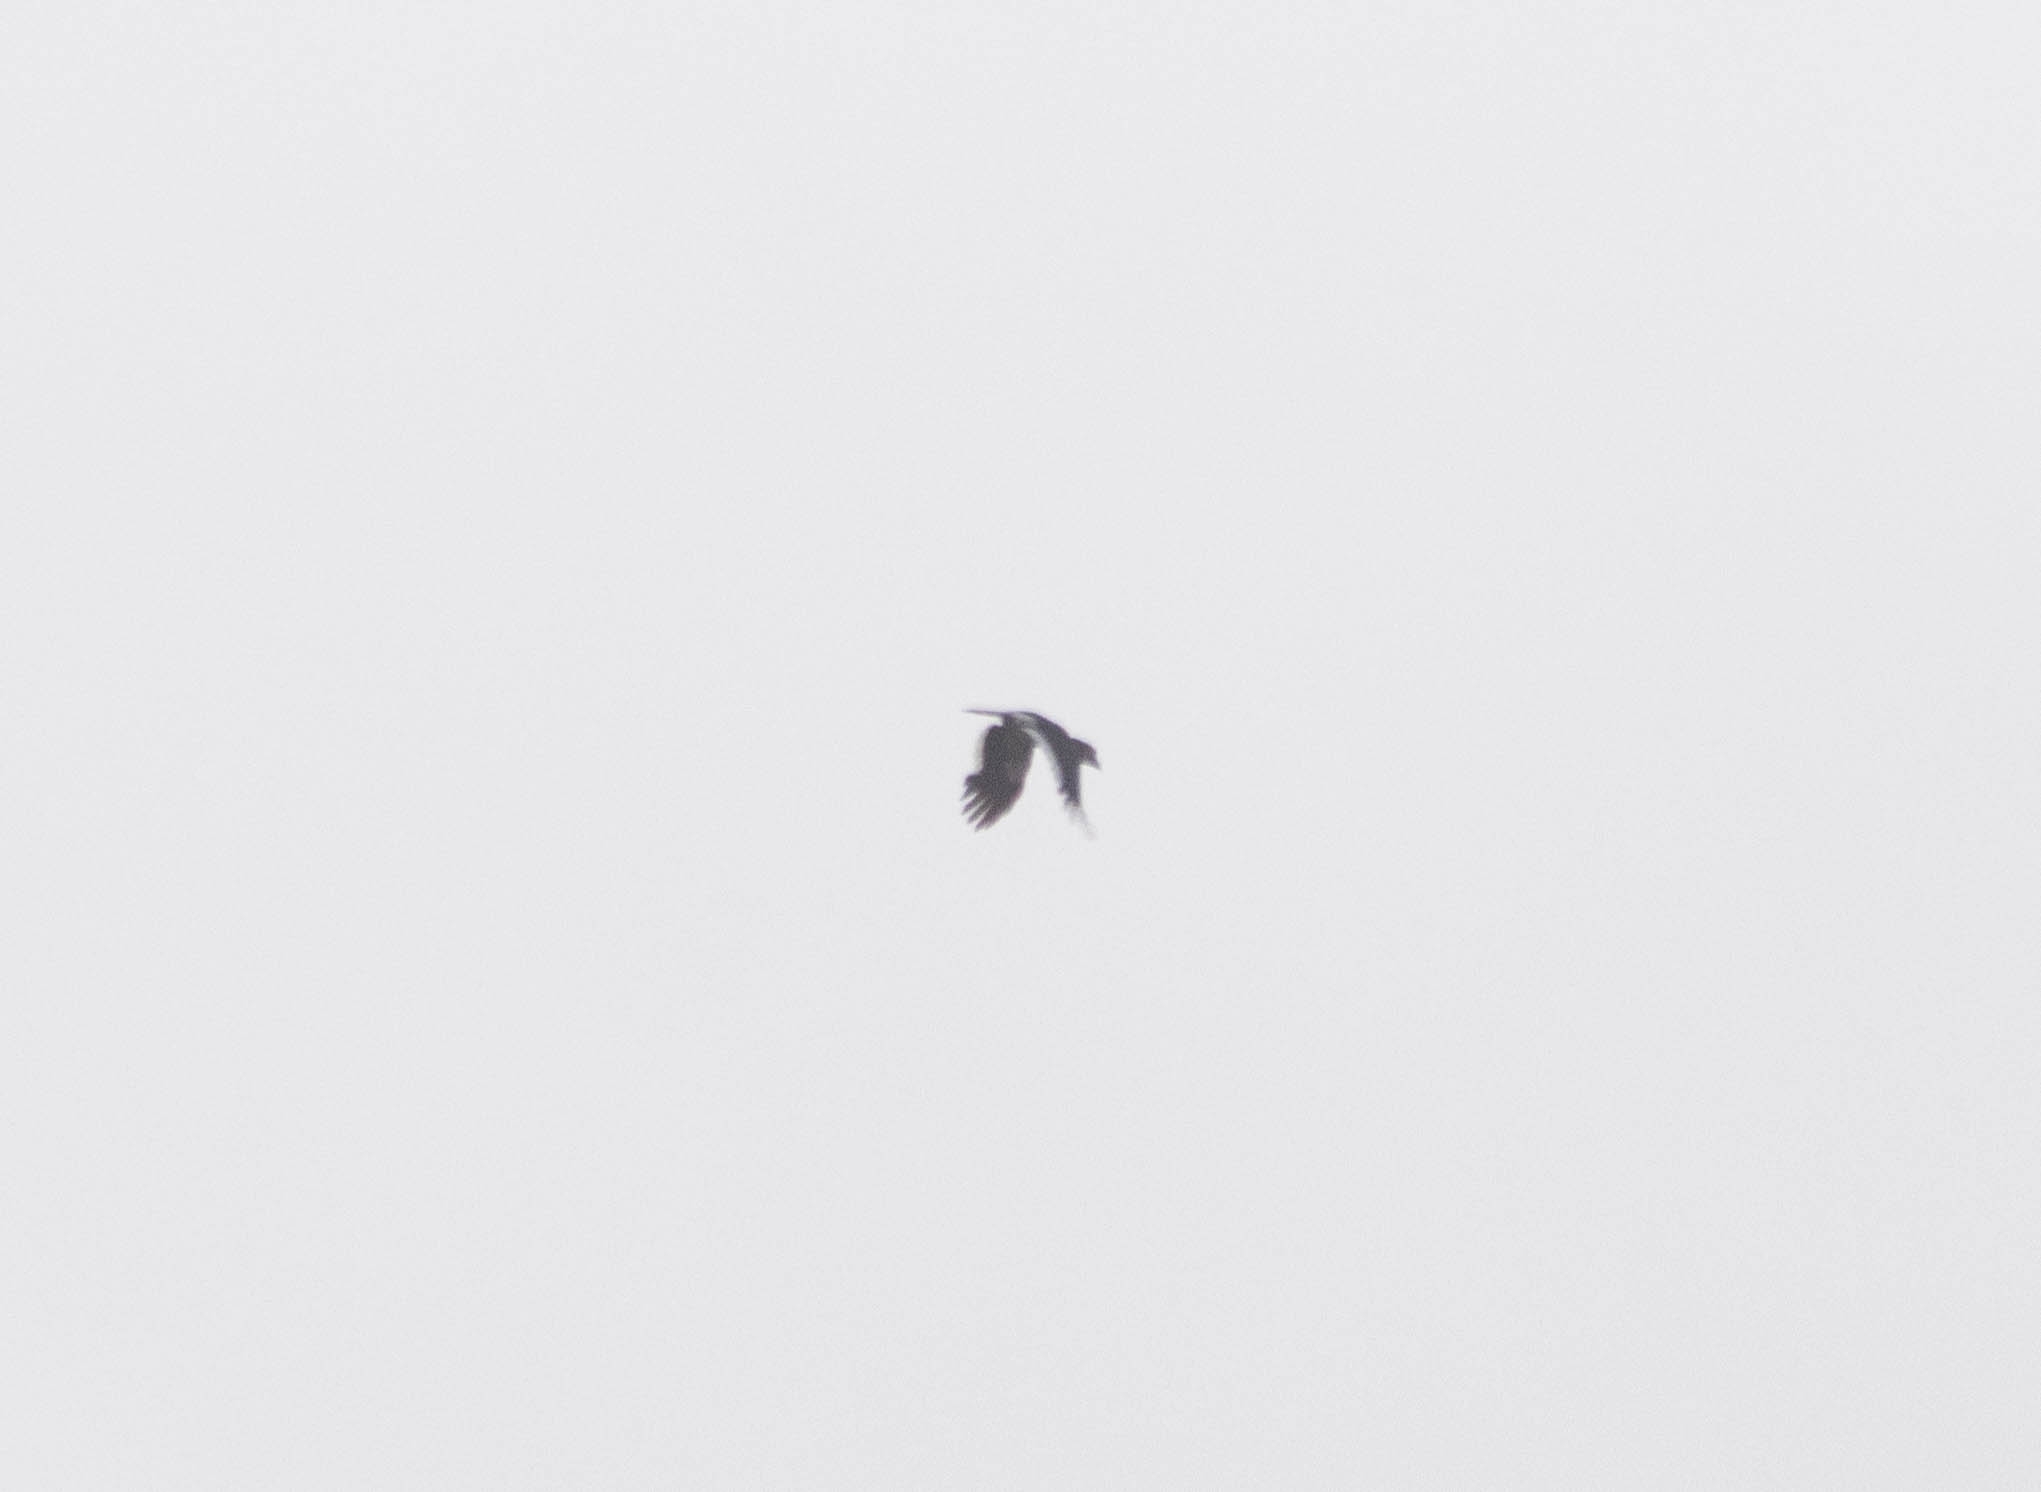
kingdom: Animalia
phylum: Chordata
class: Aves
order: Bucerotiformes
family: Bucerotidae
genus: Bycanistes
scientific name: Bycanistes bucinator
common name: Trumpeter hornbill
